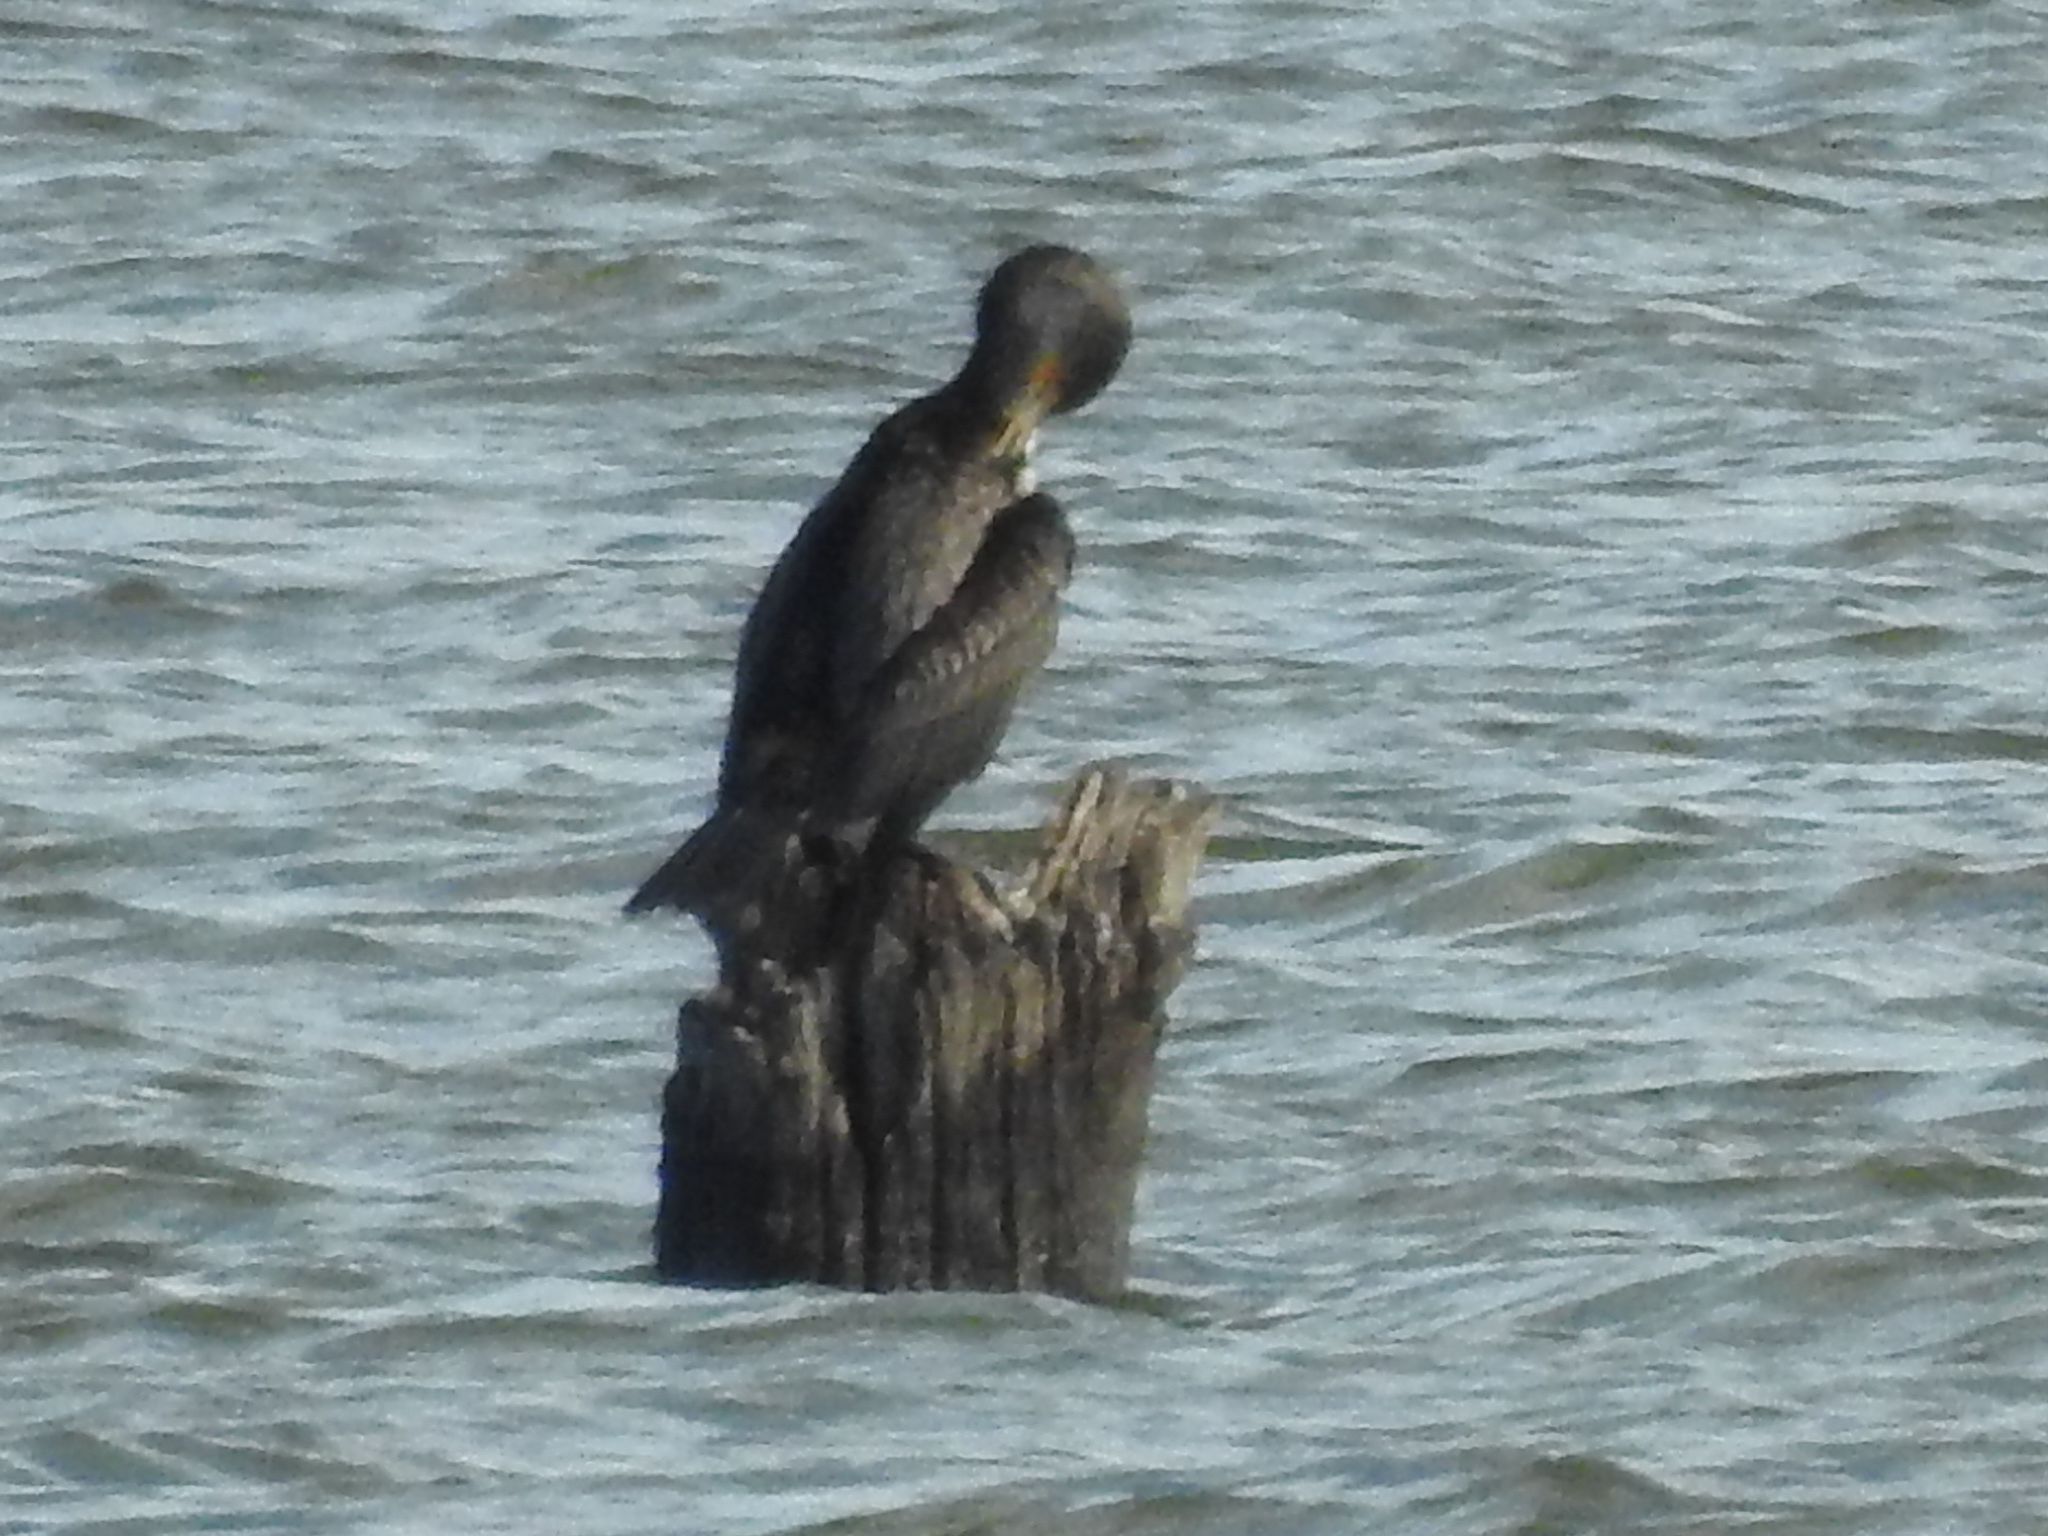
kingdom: Animalia
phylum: Chordata
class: Aves
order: Suliformes
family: Phalacrocoracidae
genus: Phalacrocorax
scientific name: Phalacrocorax auritus
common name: Double-crested cormorant
